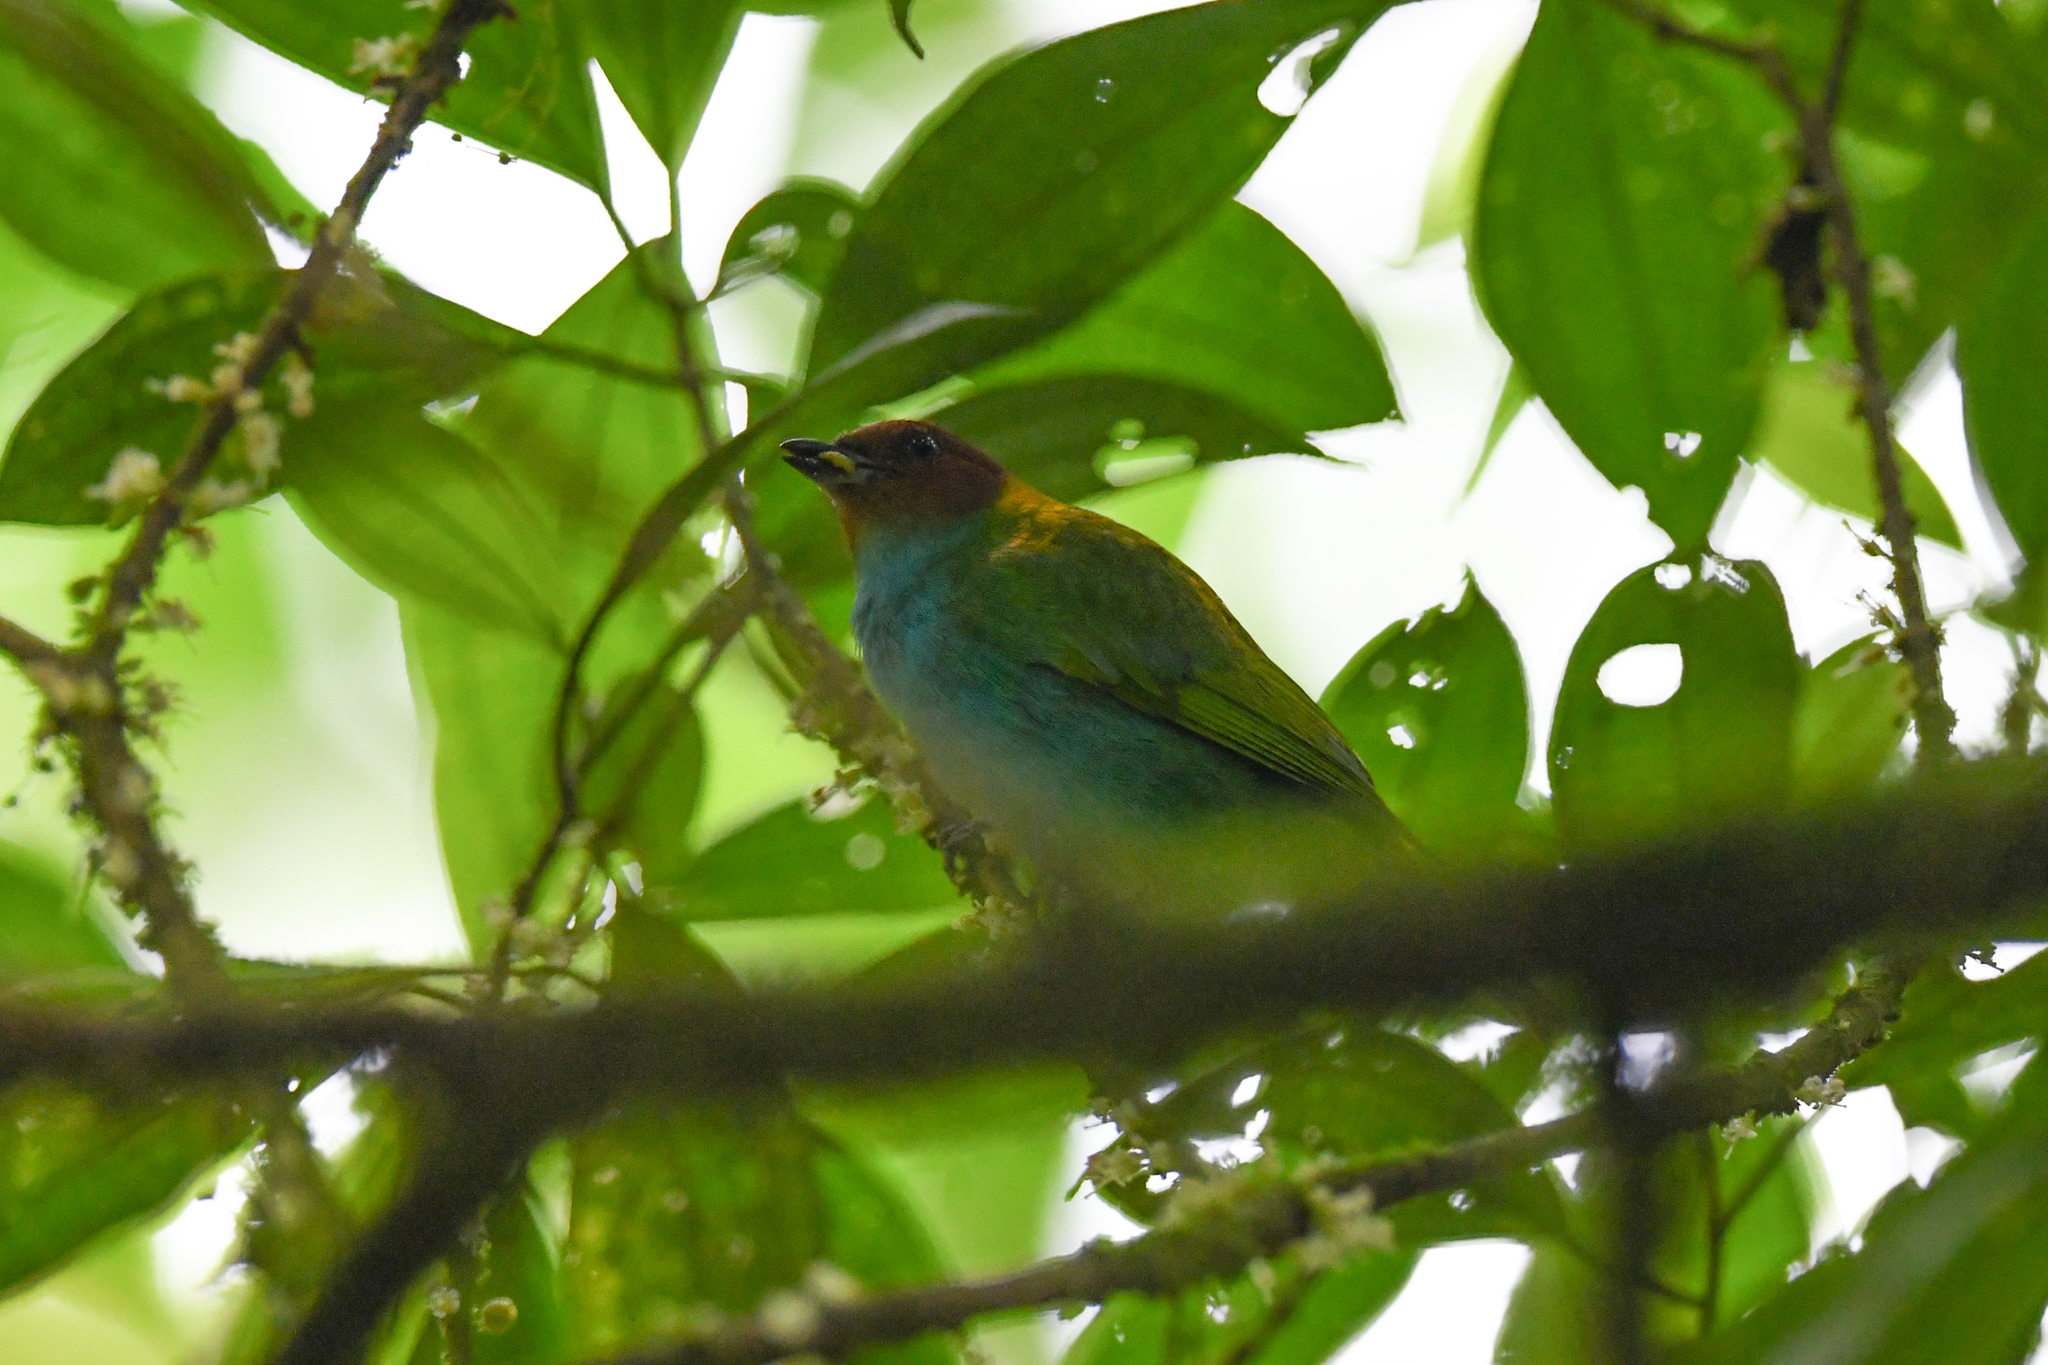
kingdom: Animalia
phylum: Chordata
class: Aves
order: Passeriformes
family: Thraupidae
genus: Tangara
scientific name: Tangara gyrola
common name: Bay-headed tanager
